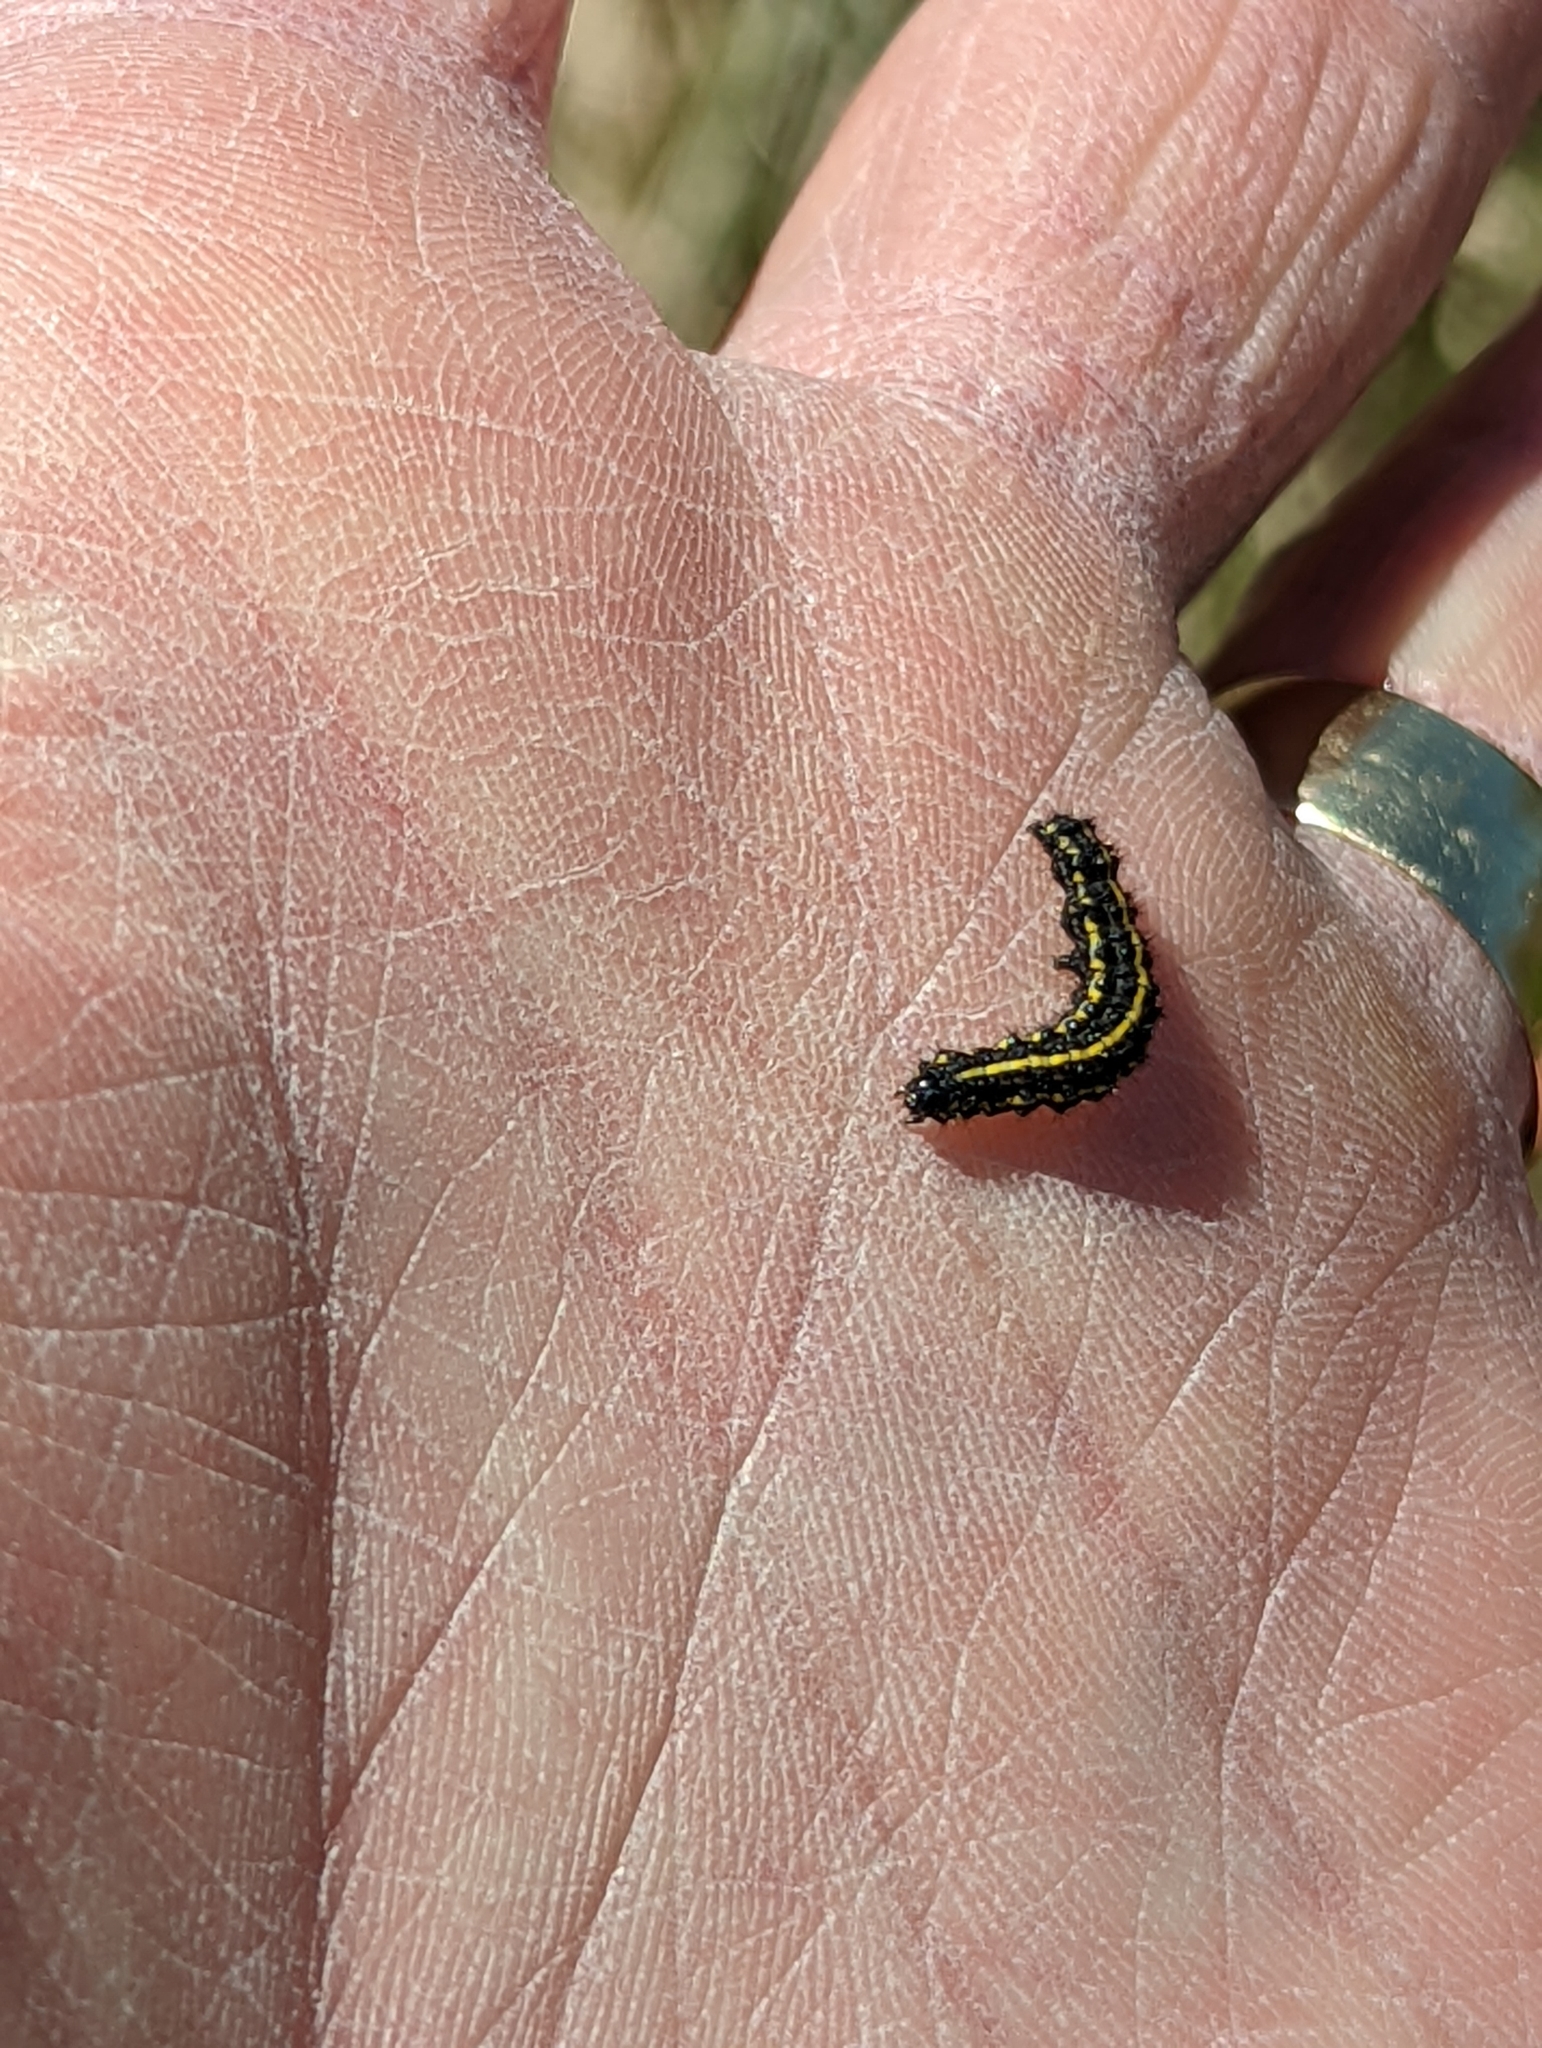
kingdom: Animalia
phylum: Arthropoda
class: Insecta
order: Lepidoptera
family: Erebidae
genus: Haploa
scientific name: Haploa
